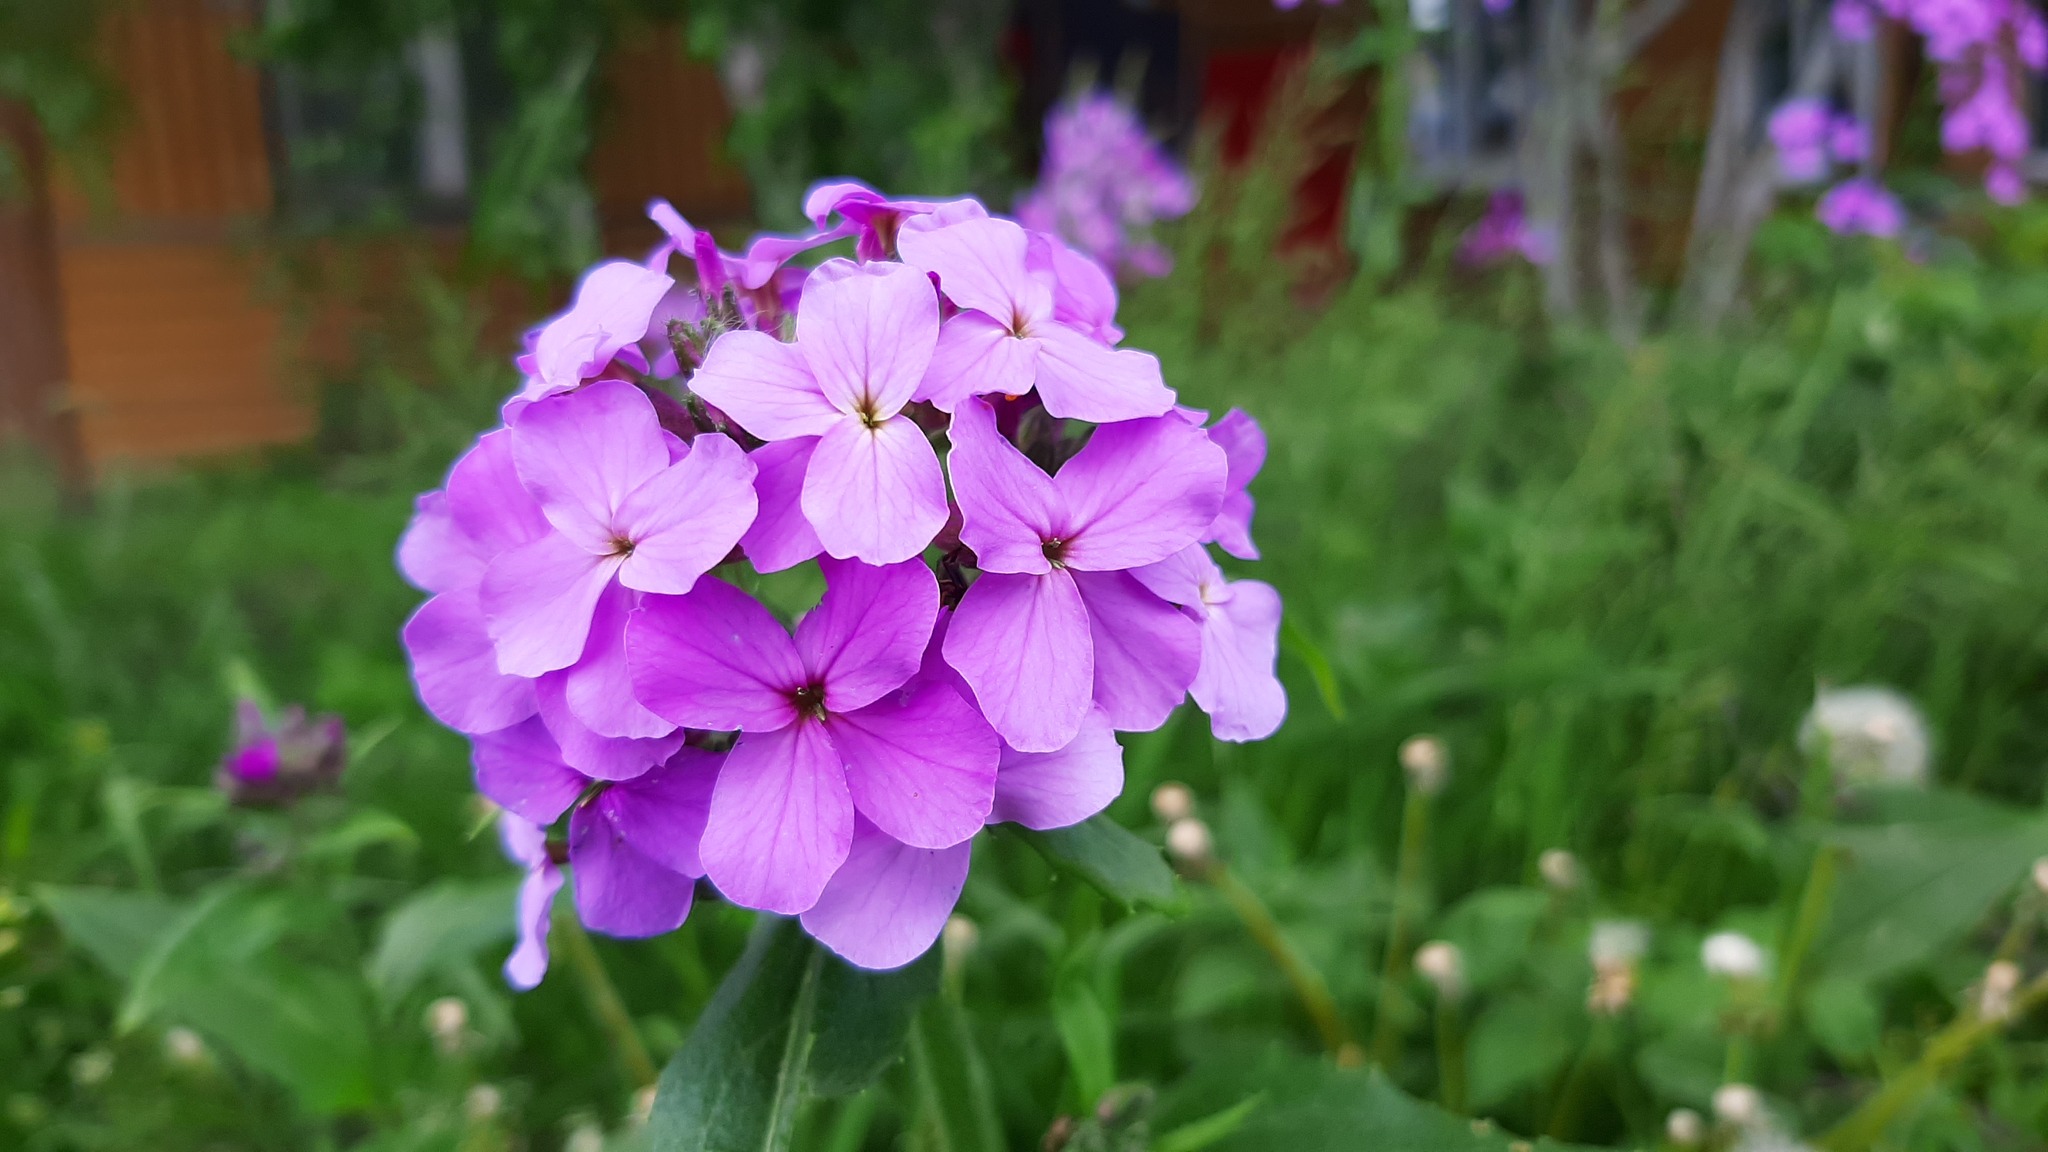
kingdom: Plantae
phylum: Tracheophyta
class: Magnoliopsida
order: Brassicales
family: Brassicaceae
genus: Hesperis
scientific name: Hesperis matronalis
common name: Dame's-violet
